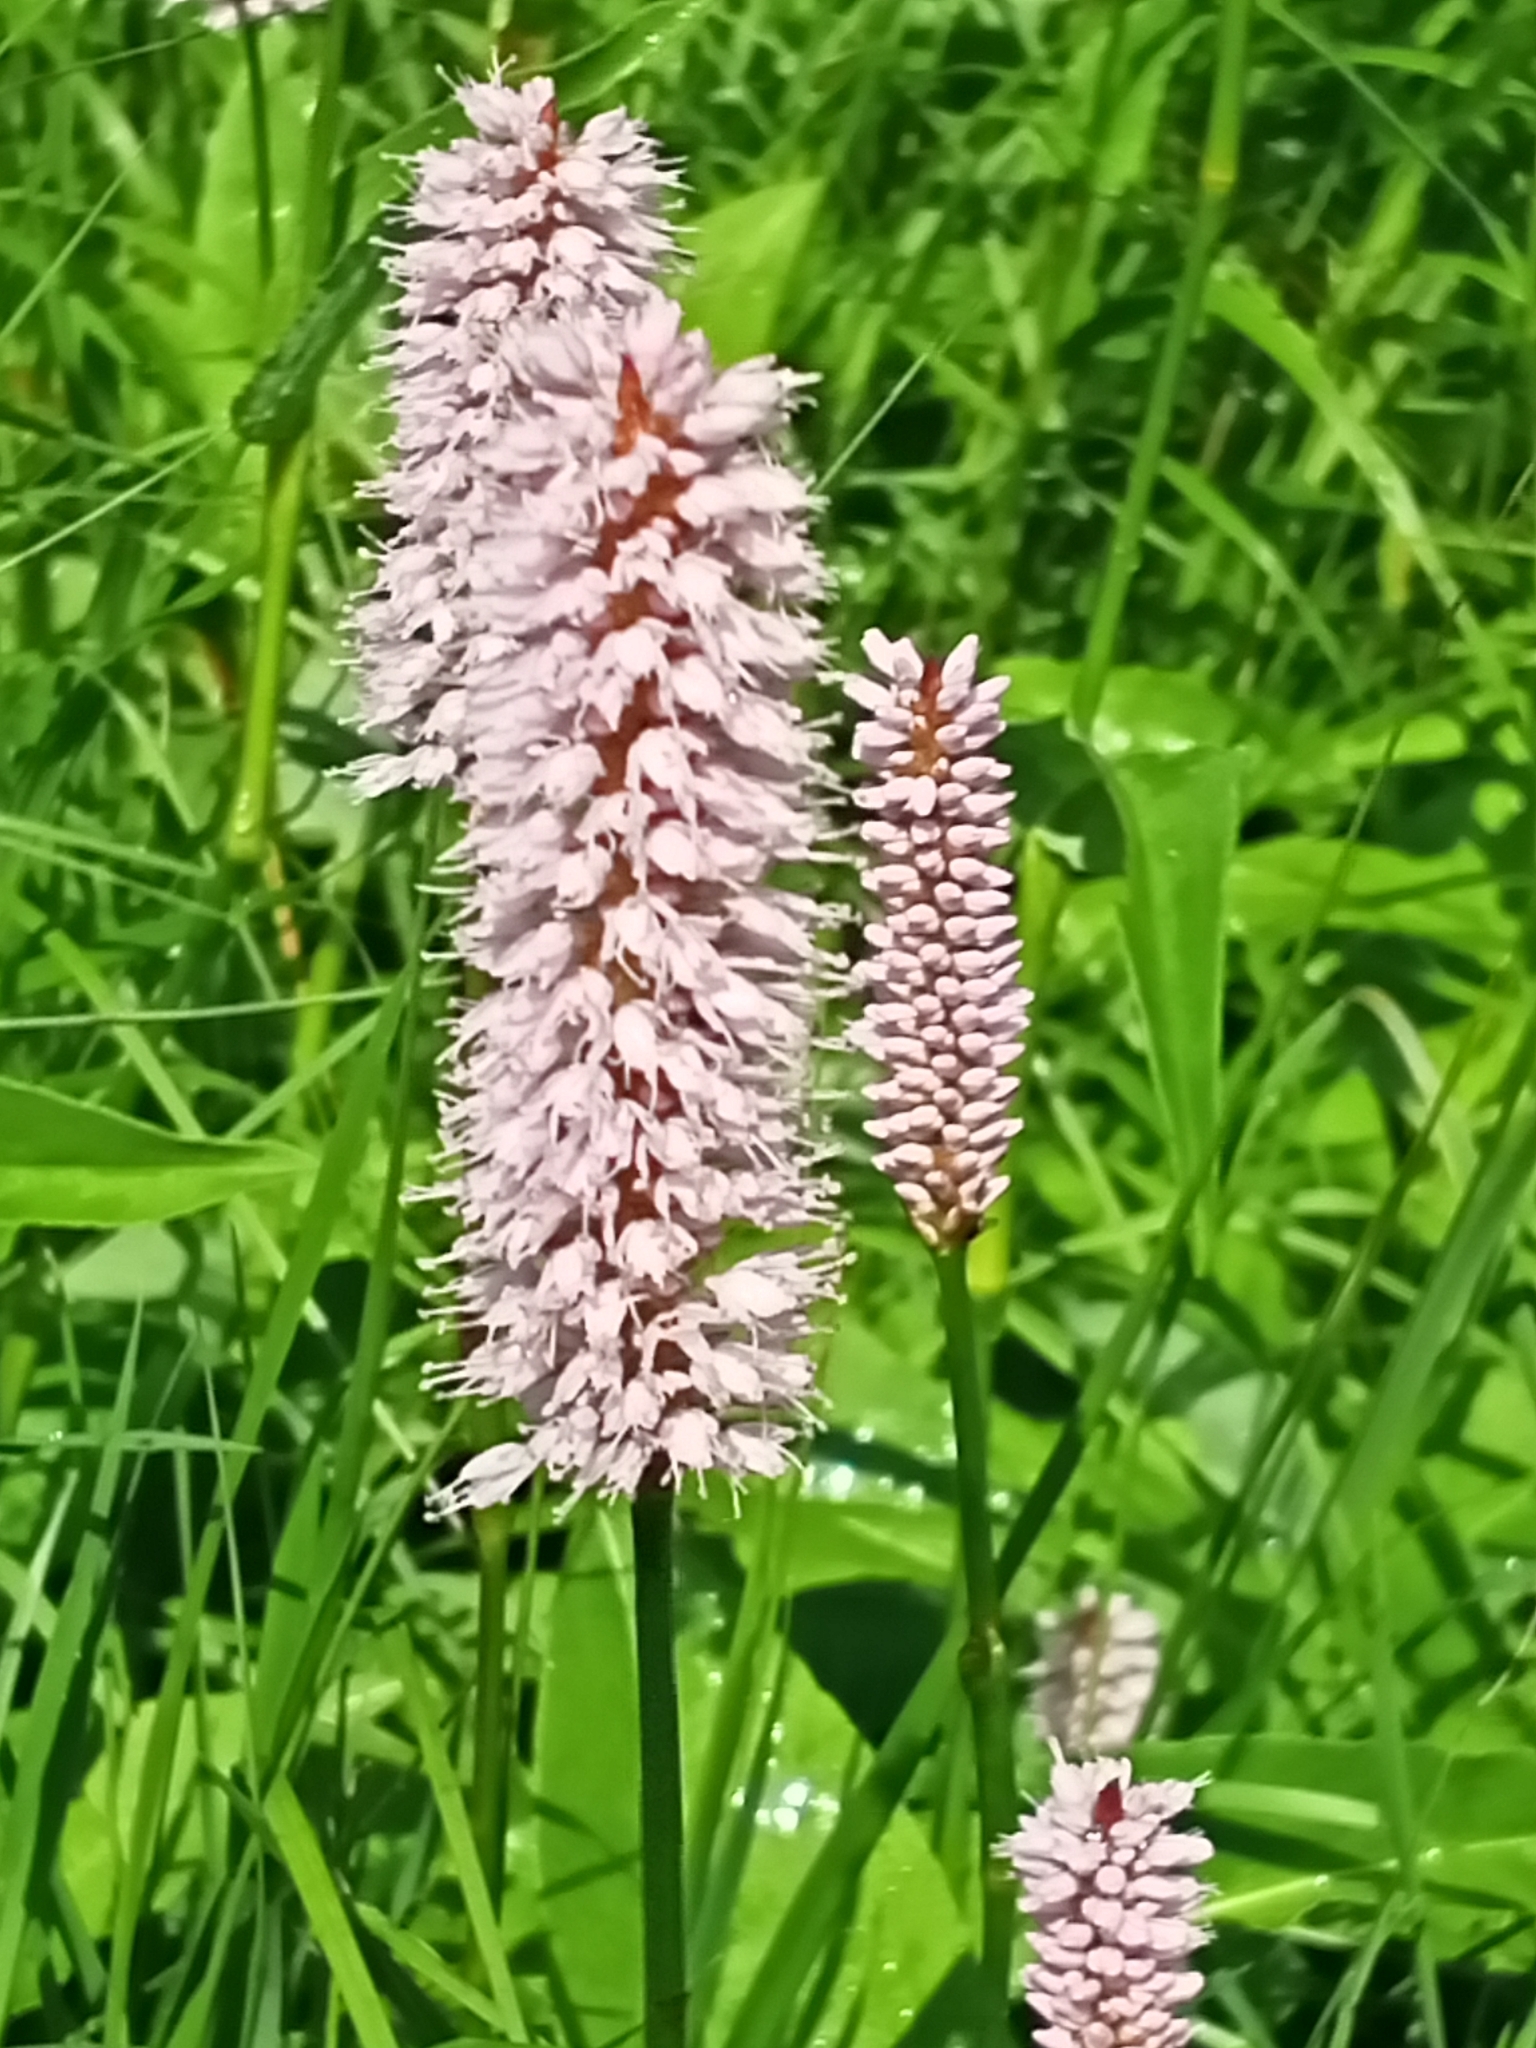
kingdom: Plantae
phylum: Tracheophyta
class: Magnoliopsida
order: Caryophyllales
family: Polygonaceae
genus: Bistorta
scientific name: Bistorta officinalis
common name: Common bistort
